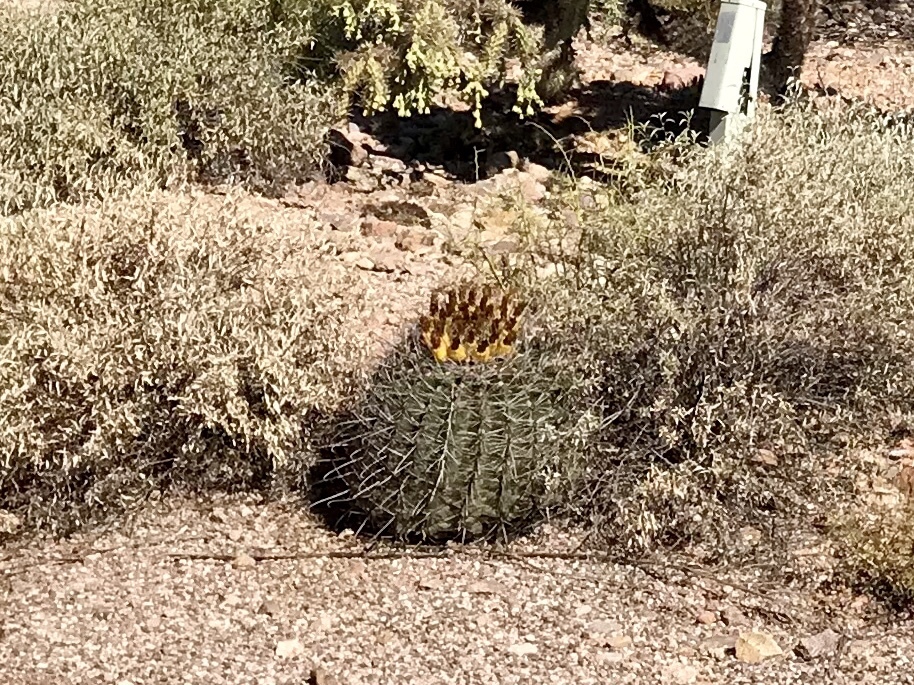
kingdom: Plantae
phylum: Tracheophyta
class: Magnoliopsida
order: Caryophyllales
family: Cactaceae
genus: Ferocactus
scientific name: Ferocactus wislizeni
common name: Candy barrel cactus
